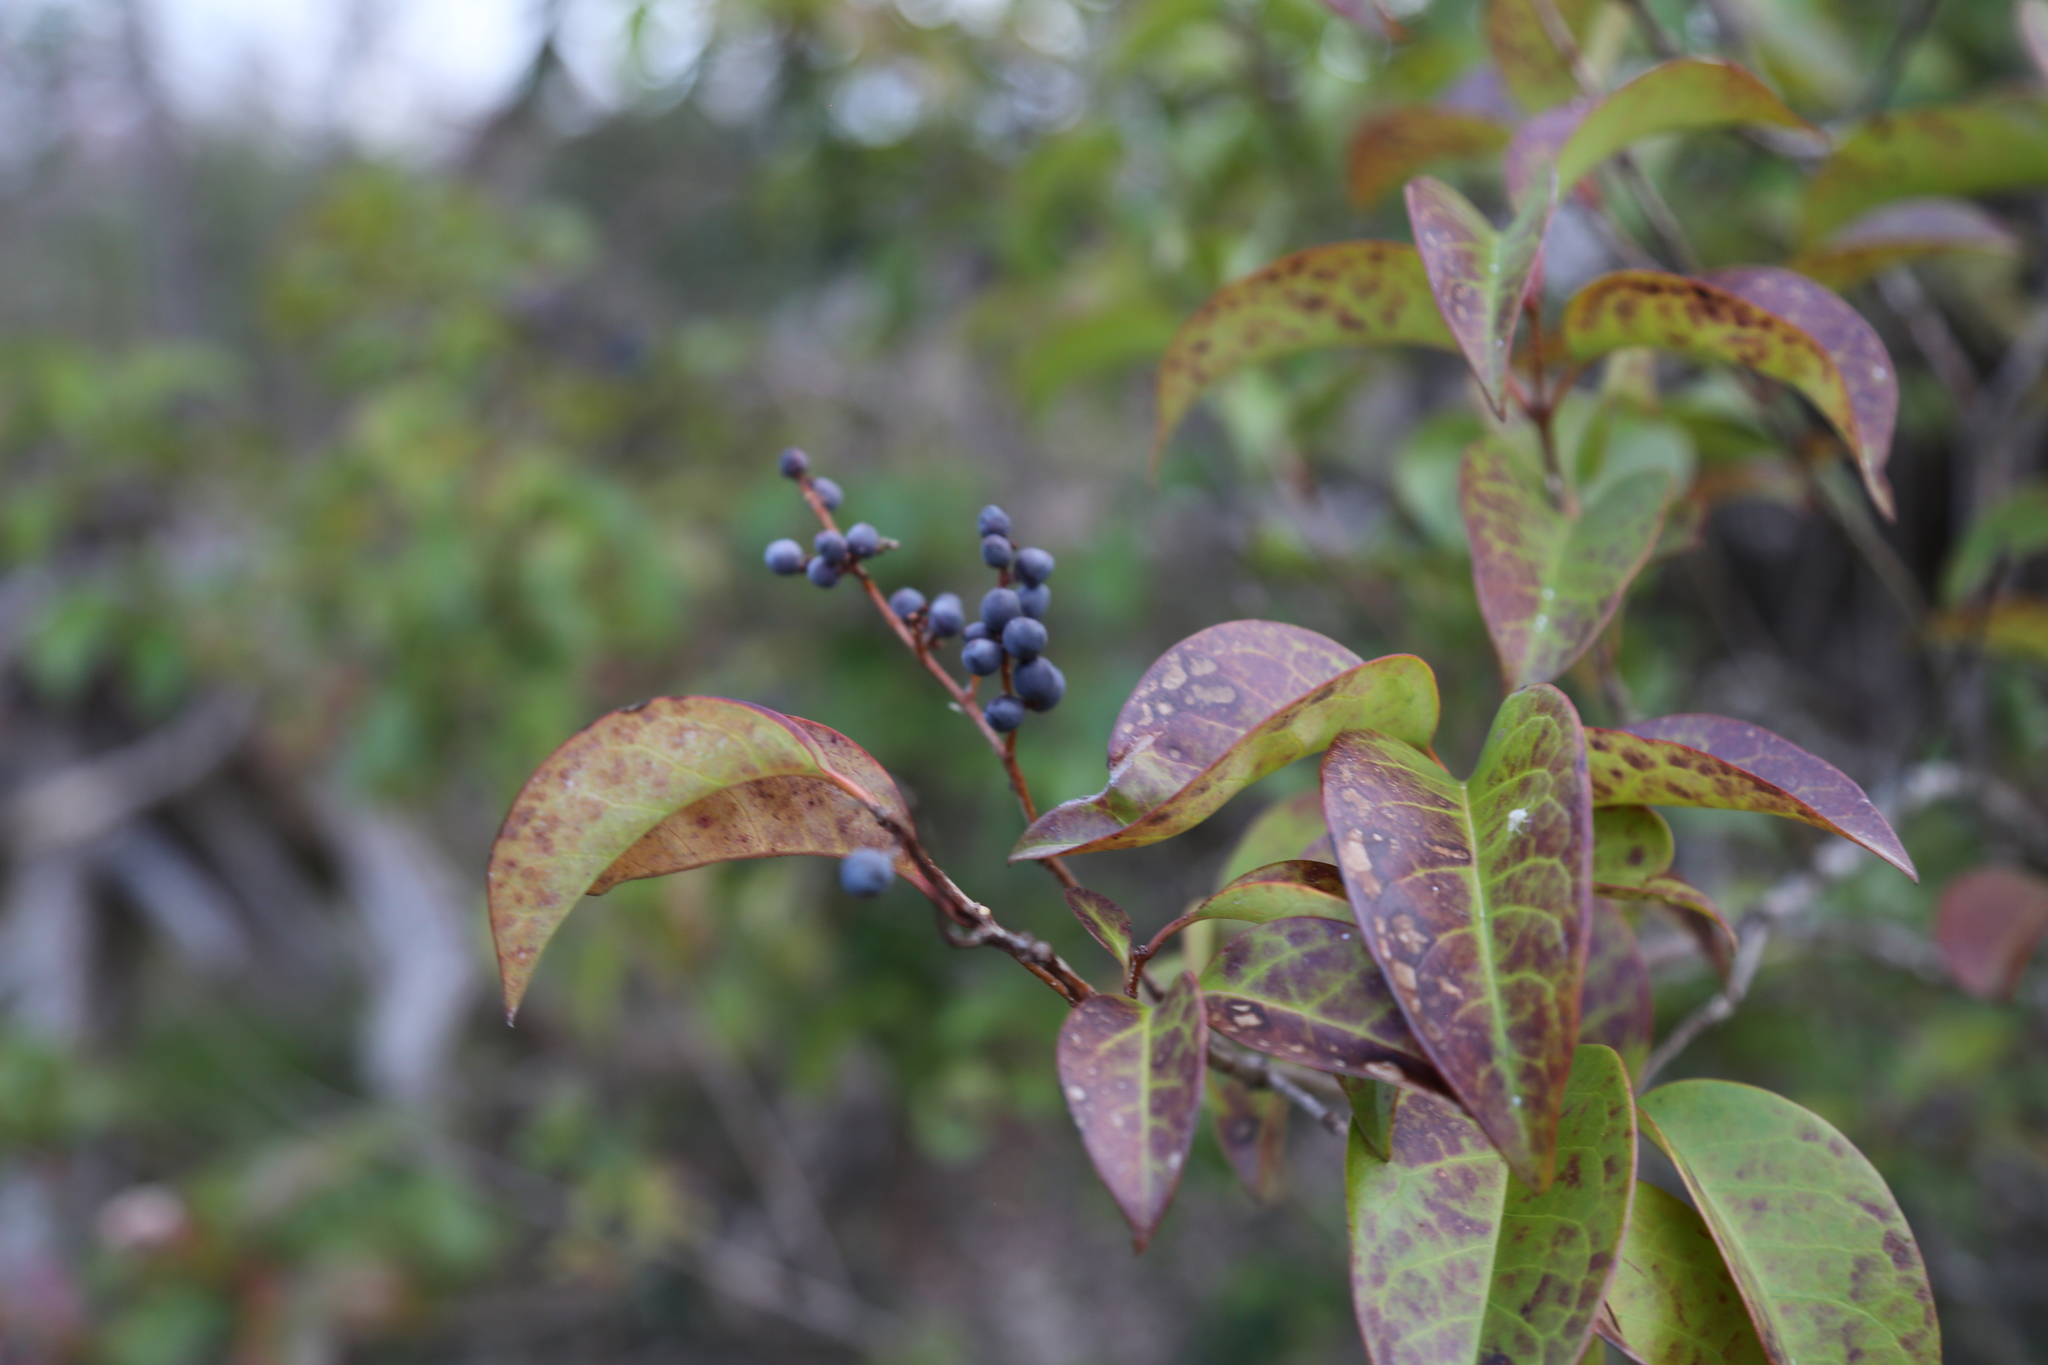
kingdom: Plantae
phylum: Tracheophyta
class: Magnoliopsida
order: Lamiales
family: Oleaceae
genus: Ligustrum
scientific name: Ligustrum lucidum
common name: Glossy privet
